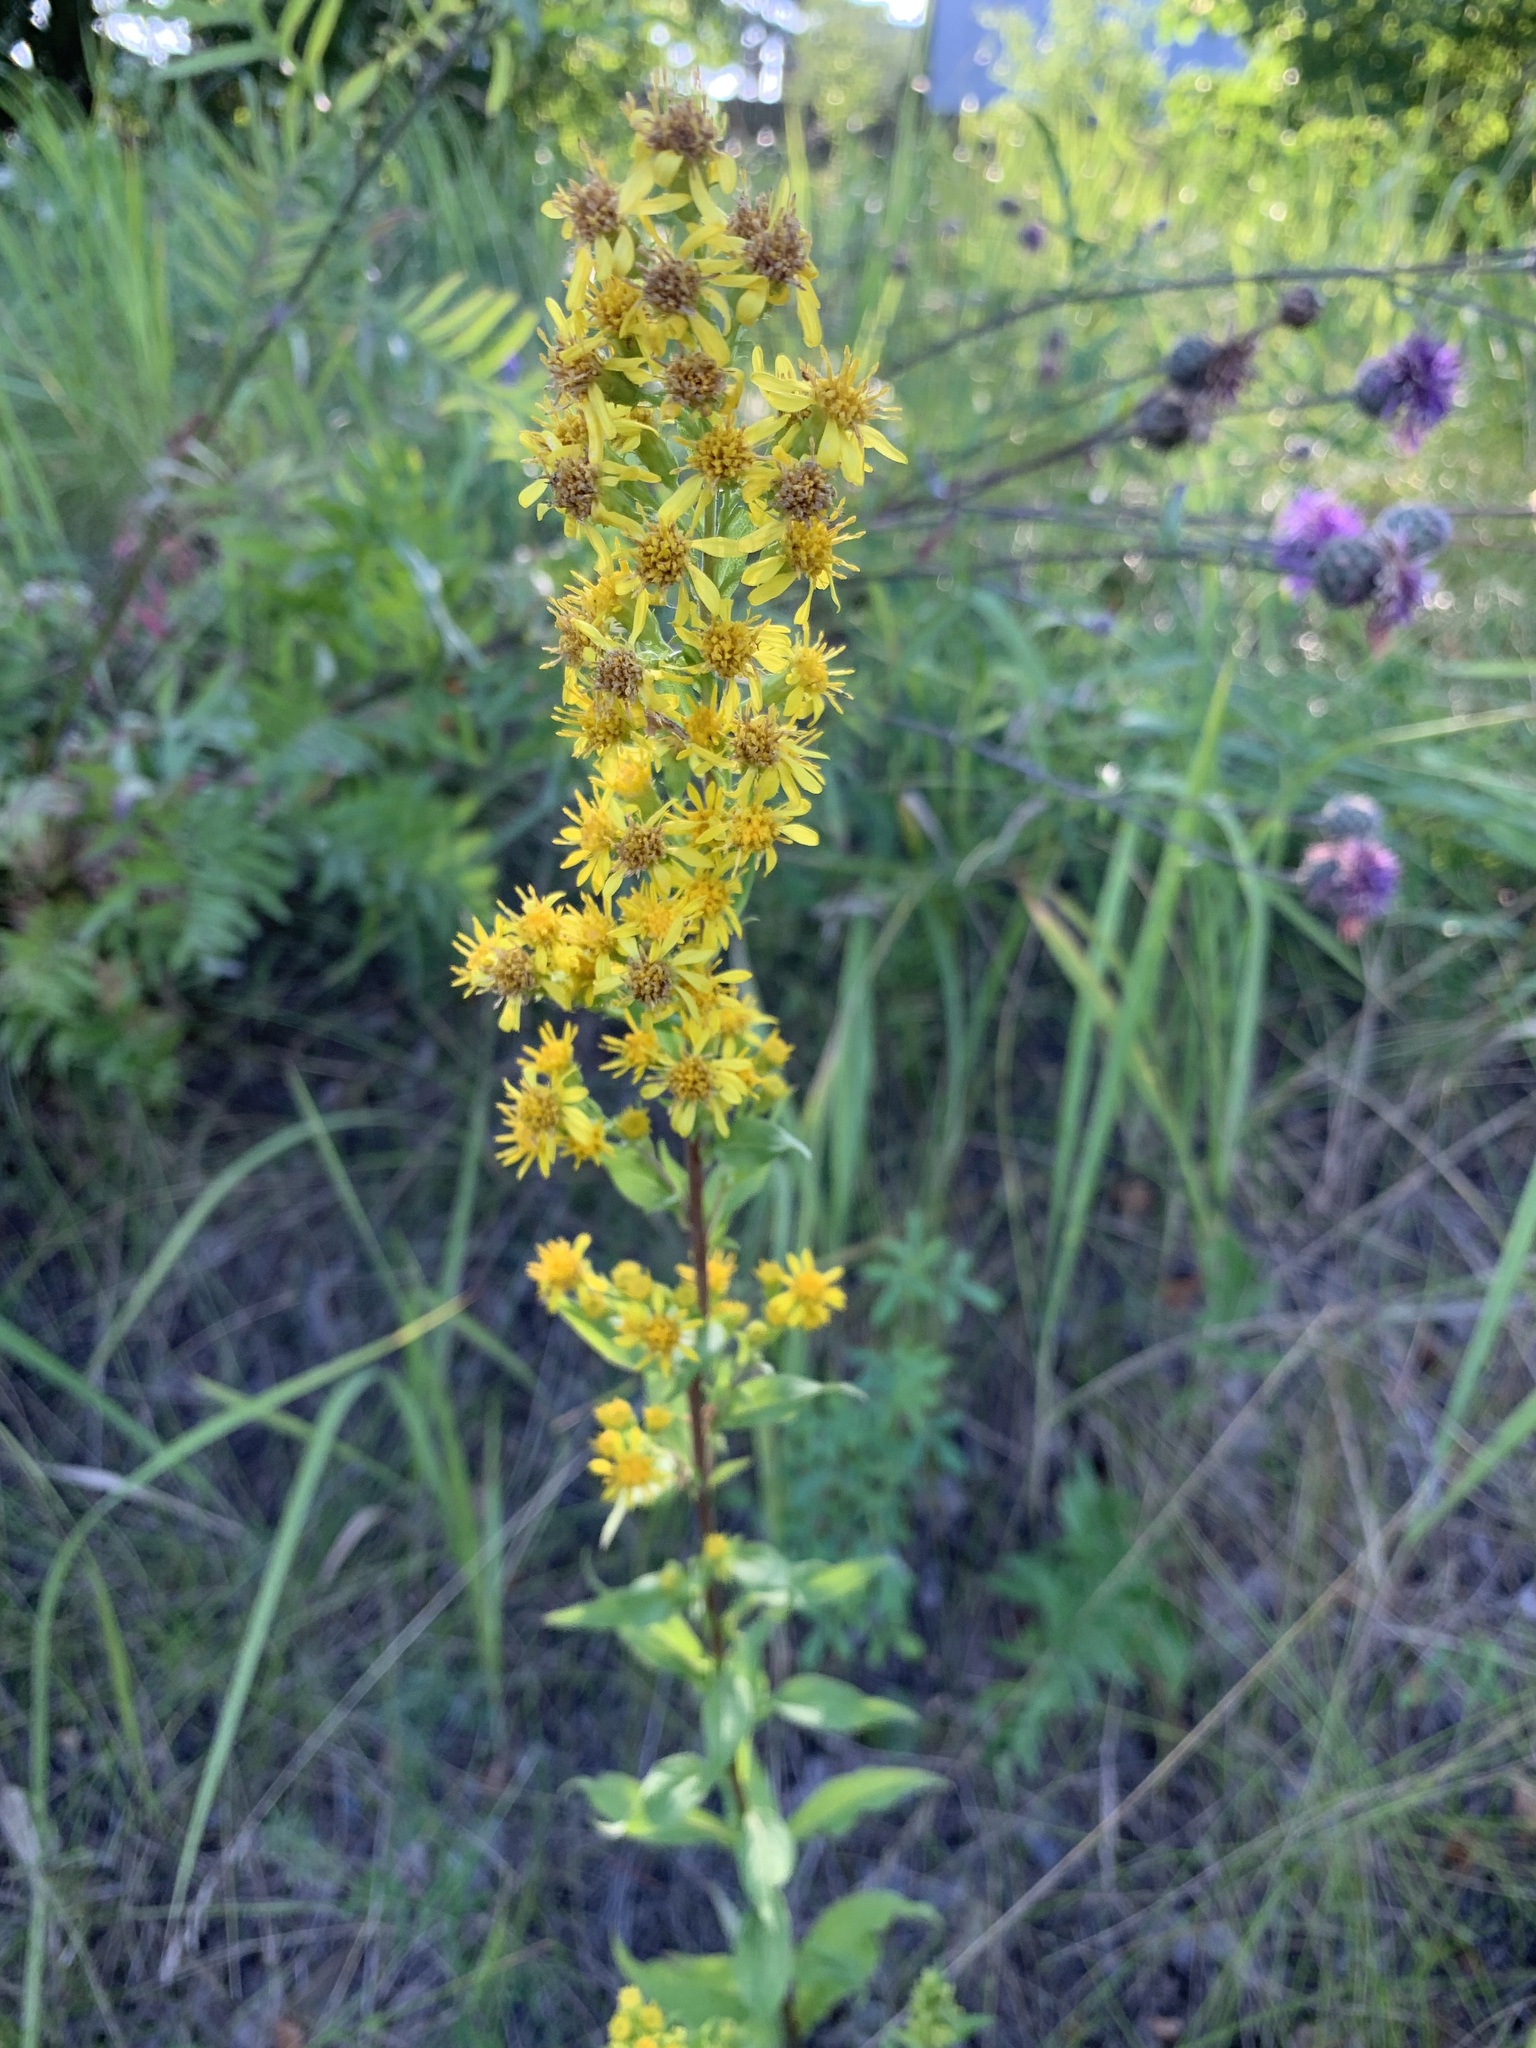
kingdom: Plantae
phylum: Tracheophyta
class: Magnoliopsida
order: Asterales
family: Asteraceae
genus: Solidago
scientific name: Solidago virgaurea
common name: Goldenrod
